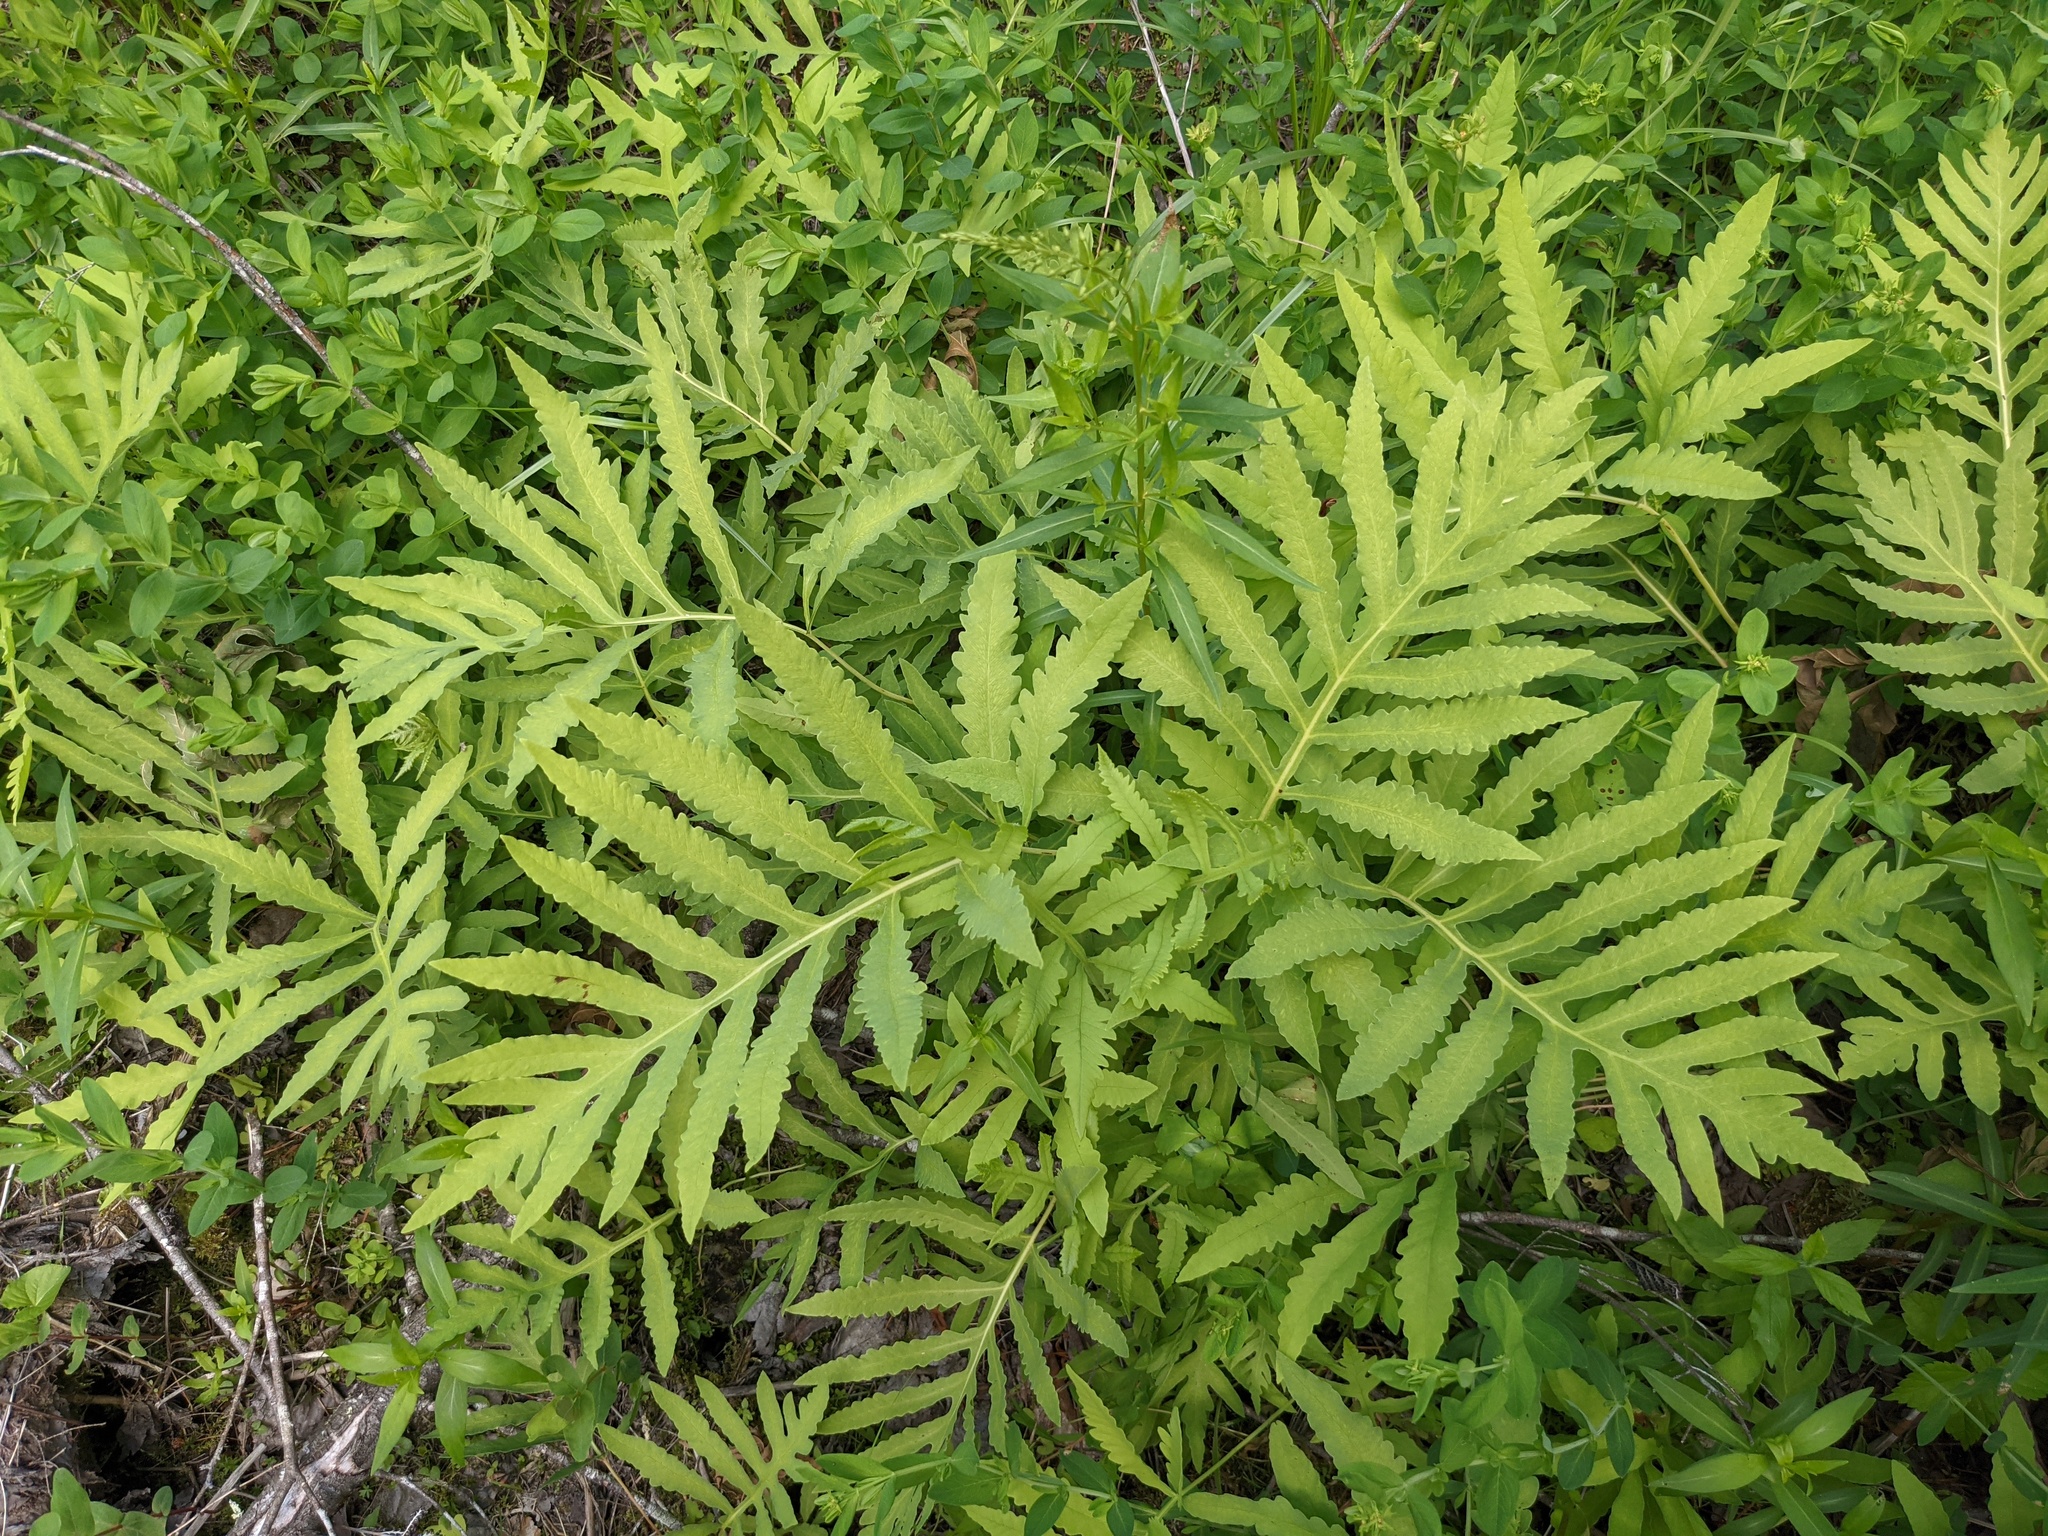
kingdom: Plantae
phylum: Tracheophyta
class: Polypodiopsida
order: Polypodiales
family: Onocleaceae
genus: Onoclea
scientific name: Onoclea sensibilis
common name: Sensitive fern
